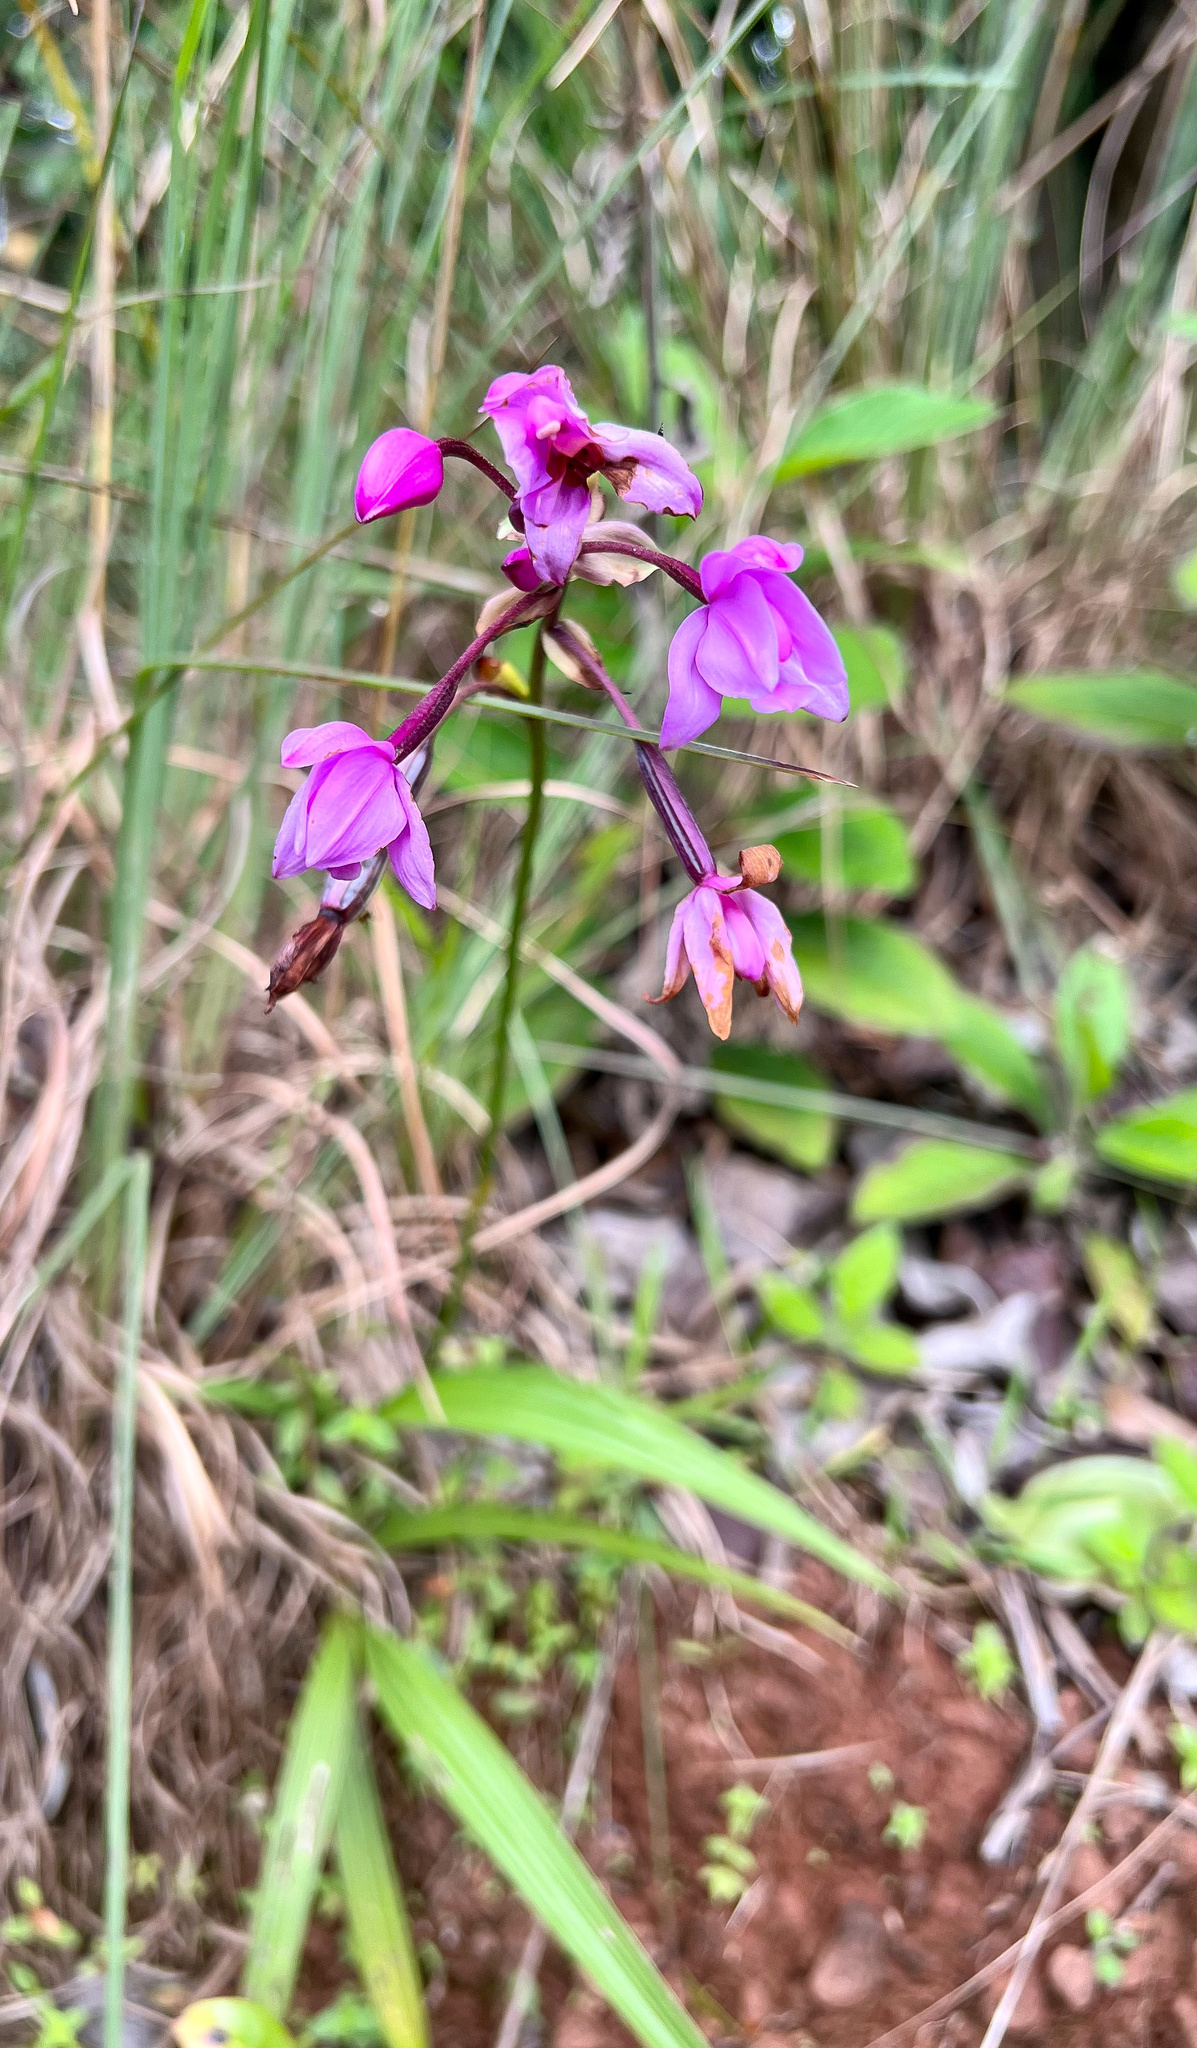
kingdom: Plantae
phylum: Tracheophyta
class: Liliopsida
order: Asparagales
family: Orchidaceae
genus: Spathoglottis
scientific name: Spathoglottis plicata
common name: Philippine ground orchid
